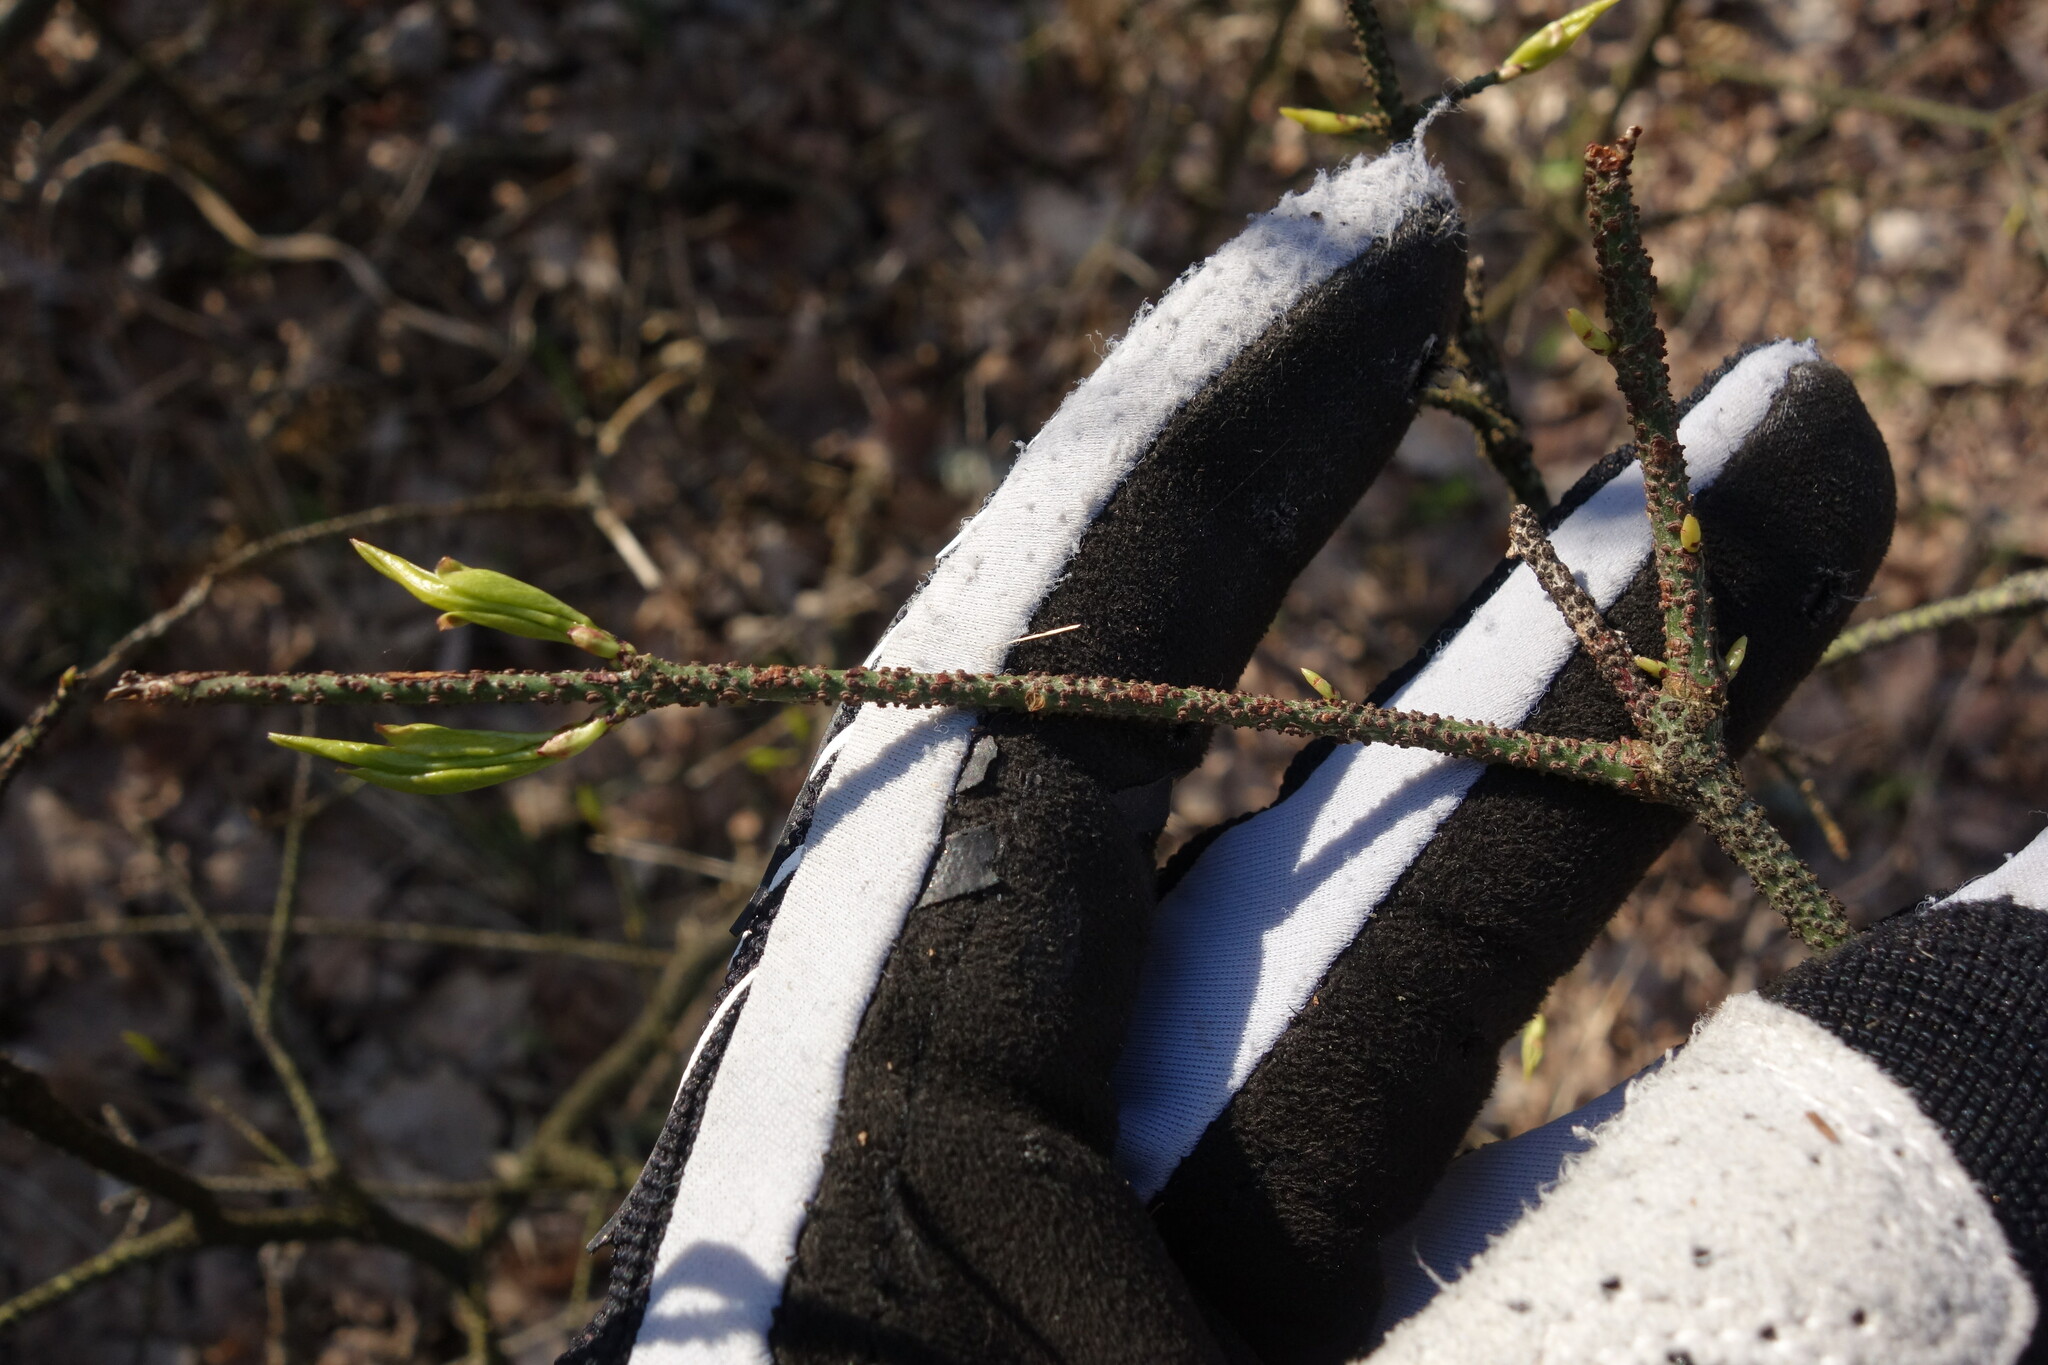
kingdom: Plantae
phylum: Tracheophyta
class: Magnoliopsida
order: Celastrales
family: Celastraceae
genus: Euonymus
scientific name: Euonymus verrucosus
